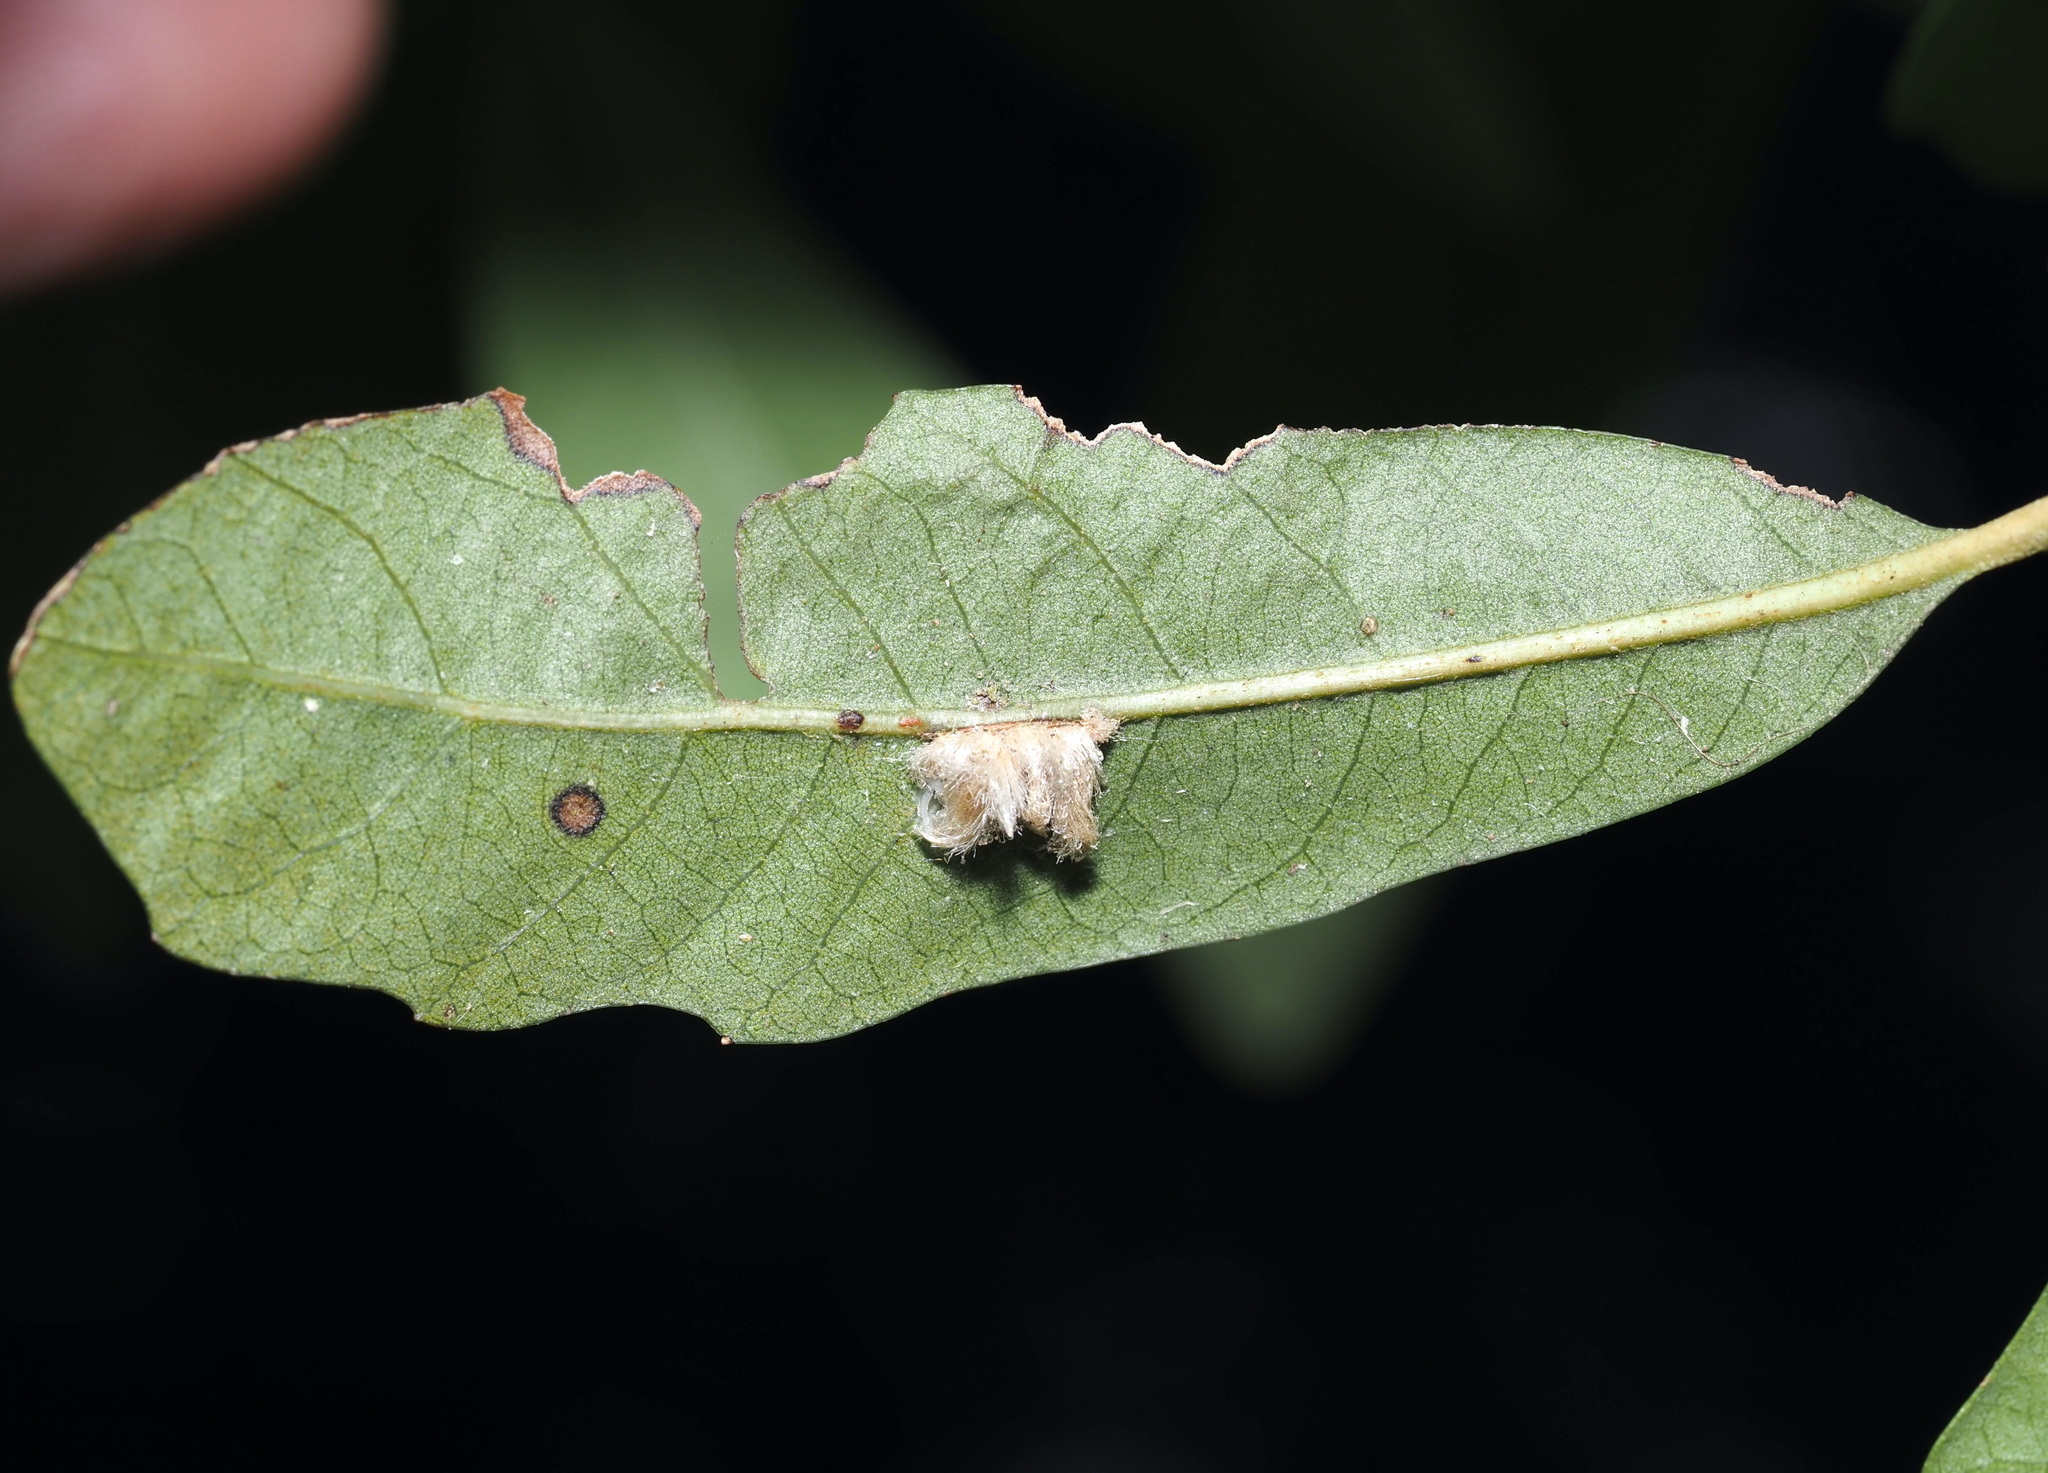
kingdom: Animalia
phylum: Arthropoda
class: Insecta
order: Hymenoptera
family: Cynipidae
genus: Andricus
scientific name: Andricus Druon quercuslanigerum
